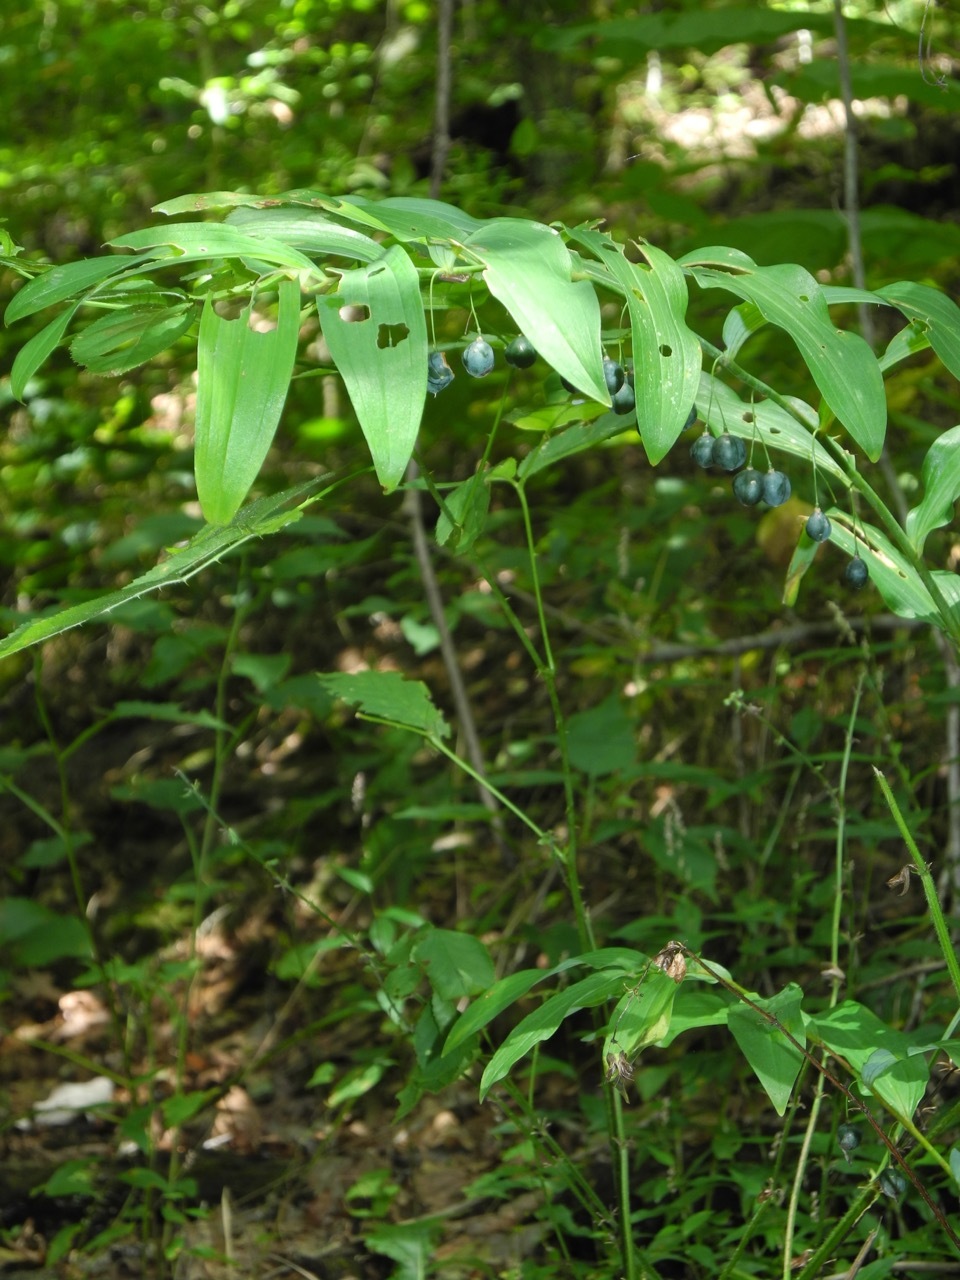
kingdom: Plantae
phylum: Tracheophyta
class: Liliopsida
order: Asparagales
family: Asparagaceae
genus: Polygonatum
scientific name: Polygonatum biflorum
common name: American solomon's-seal
